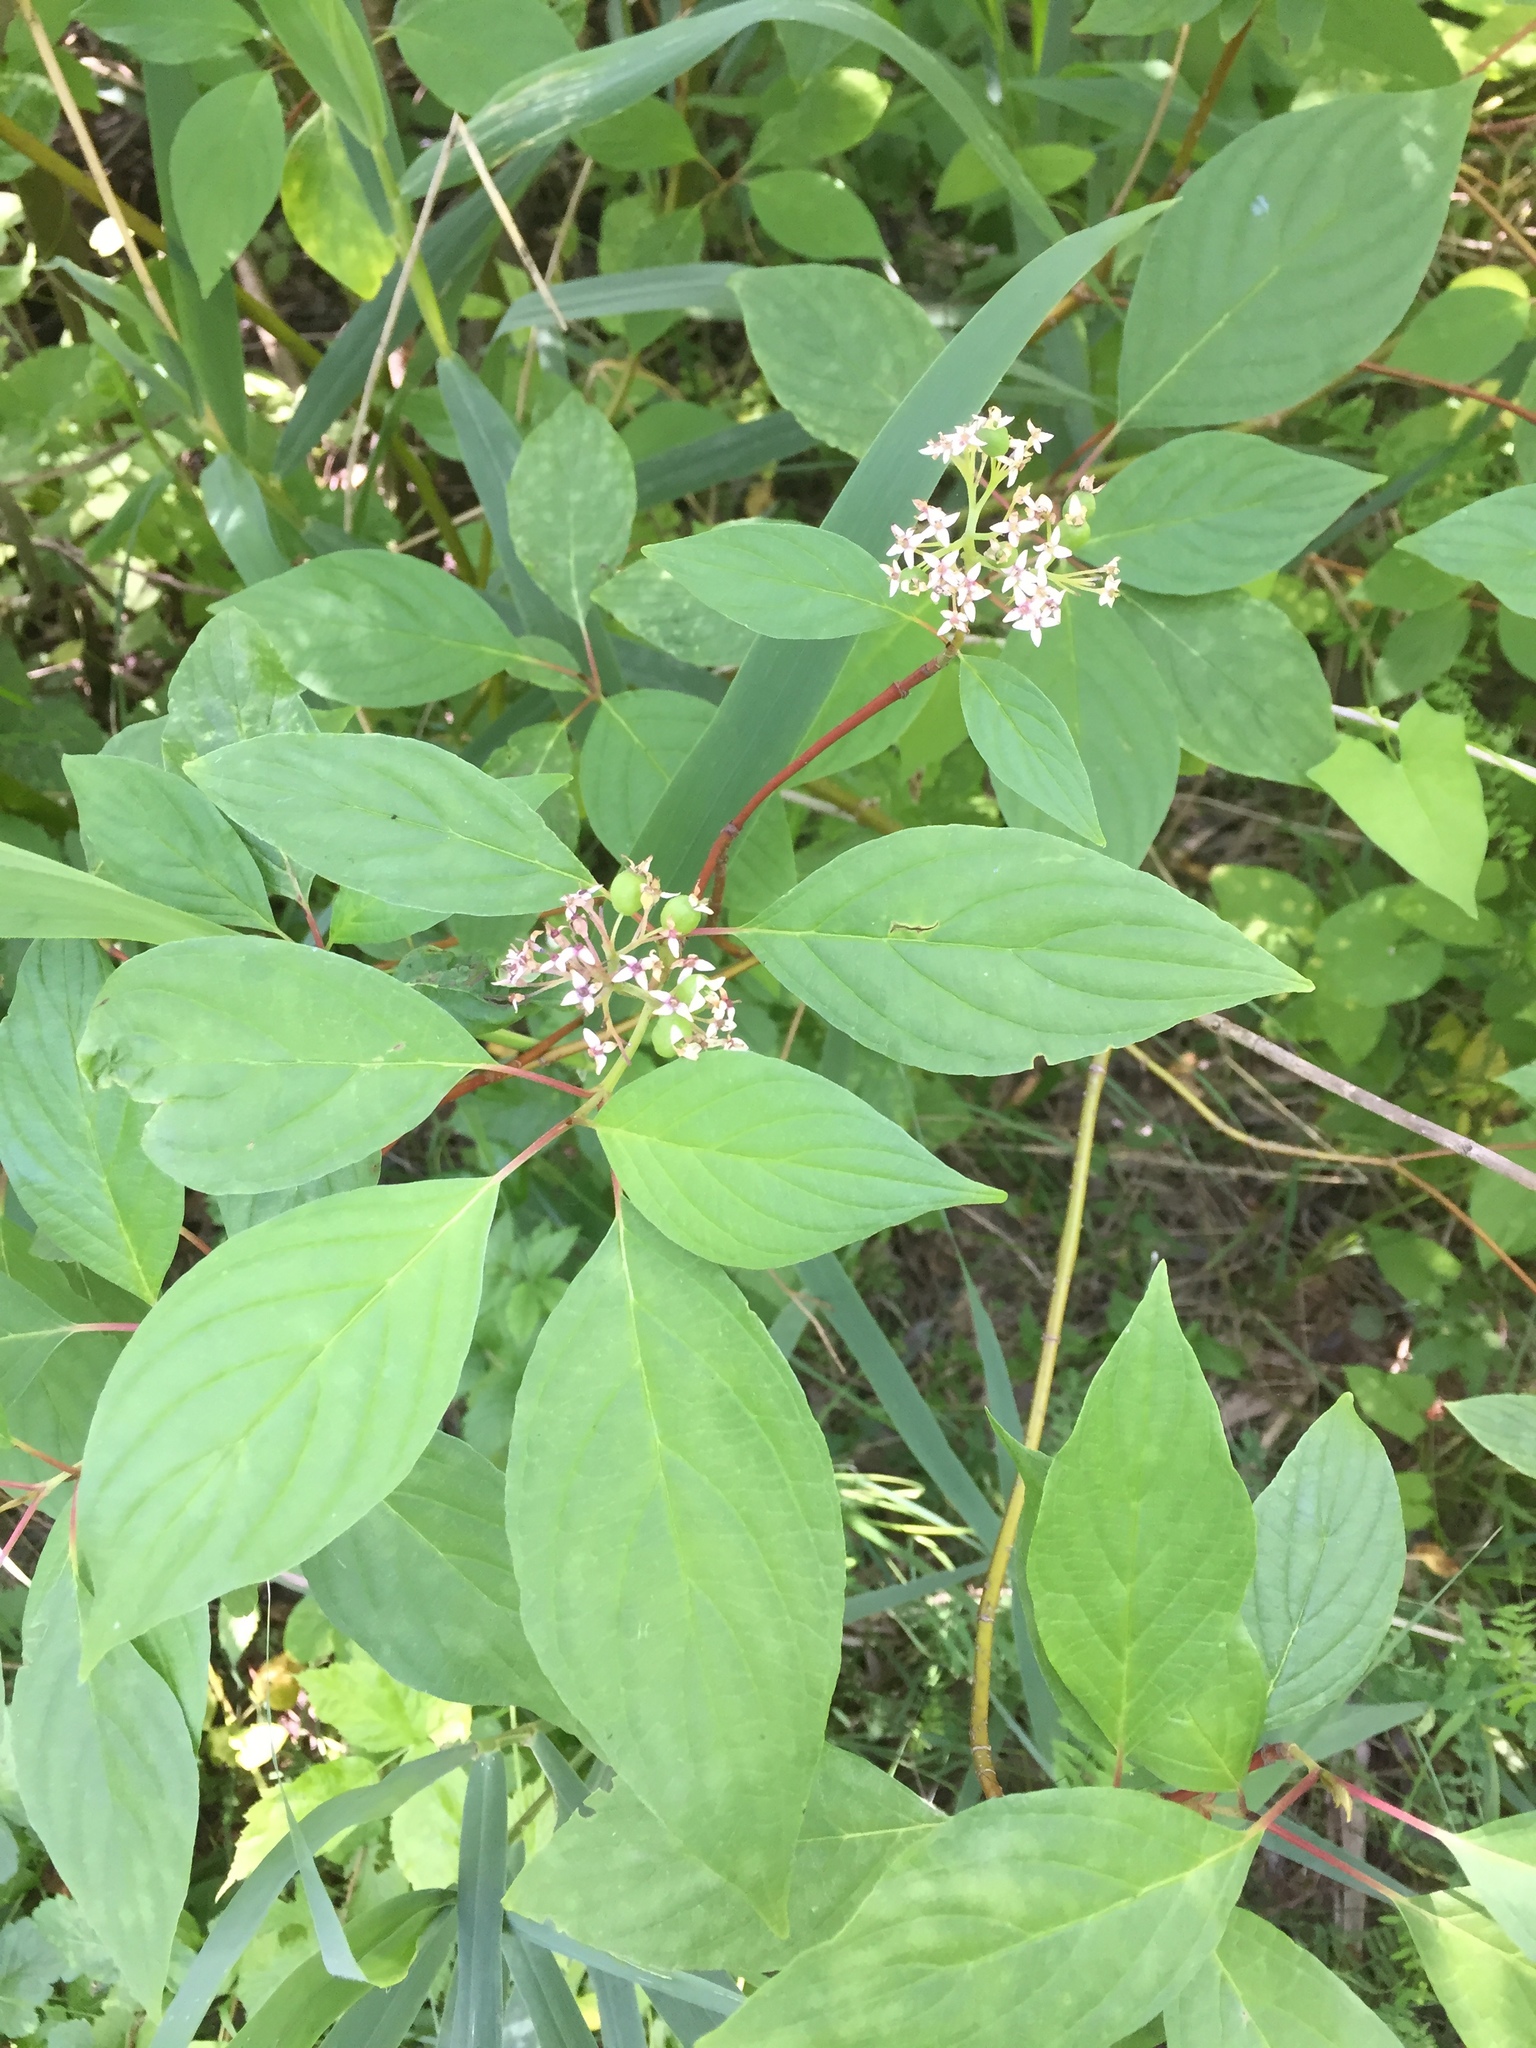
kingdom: Plantae
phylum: Tracheophyta
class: Magnoliopsida
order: Cornales
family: Cornaceae
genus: Cornus
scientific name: Cornus sericea
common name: Red-osier dogwood
